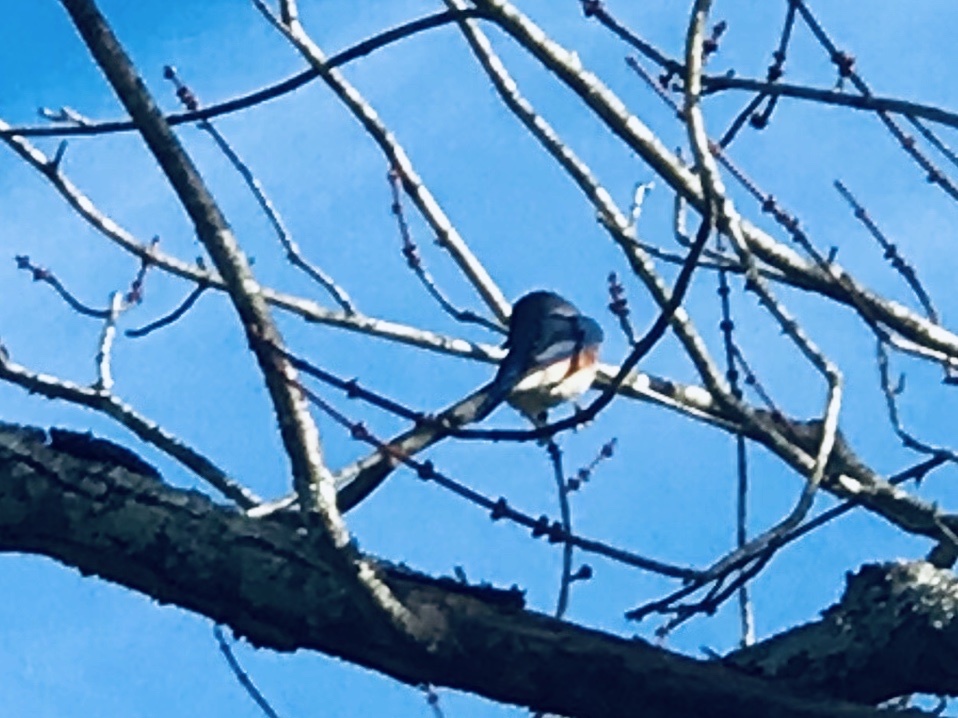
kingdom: Animalia
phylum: Chordata
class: Aves
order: Passeriformes
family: Turdidae
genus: Sialia
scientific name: Sialia sialis
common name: Eastern bluebird
